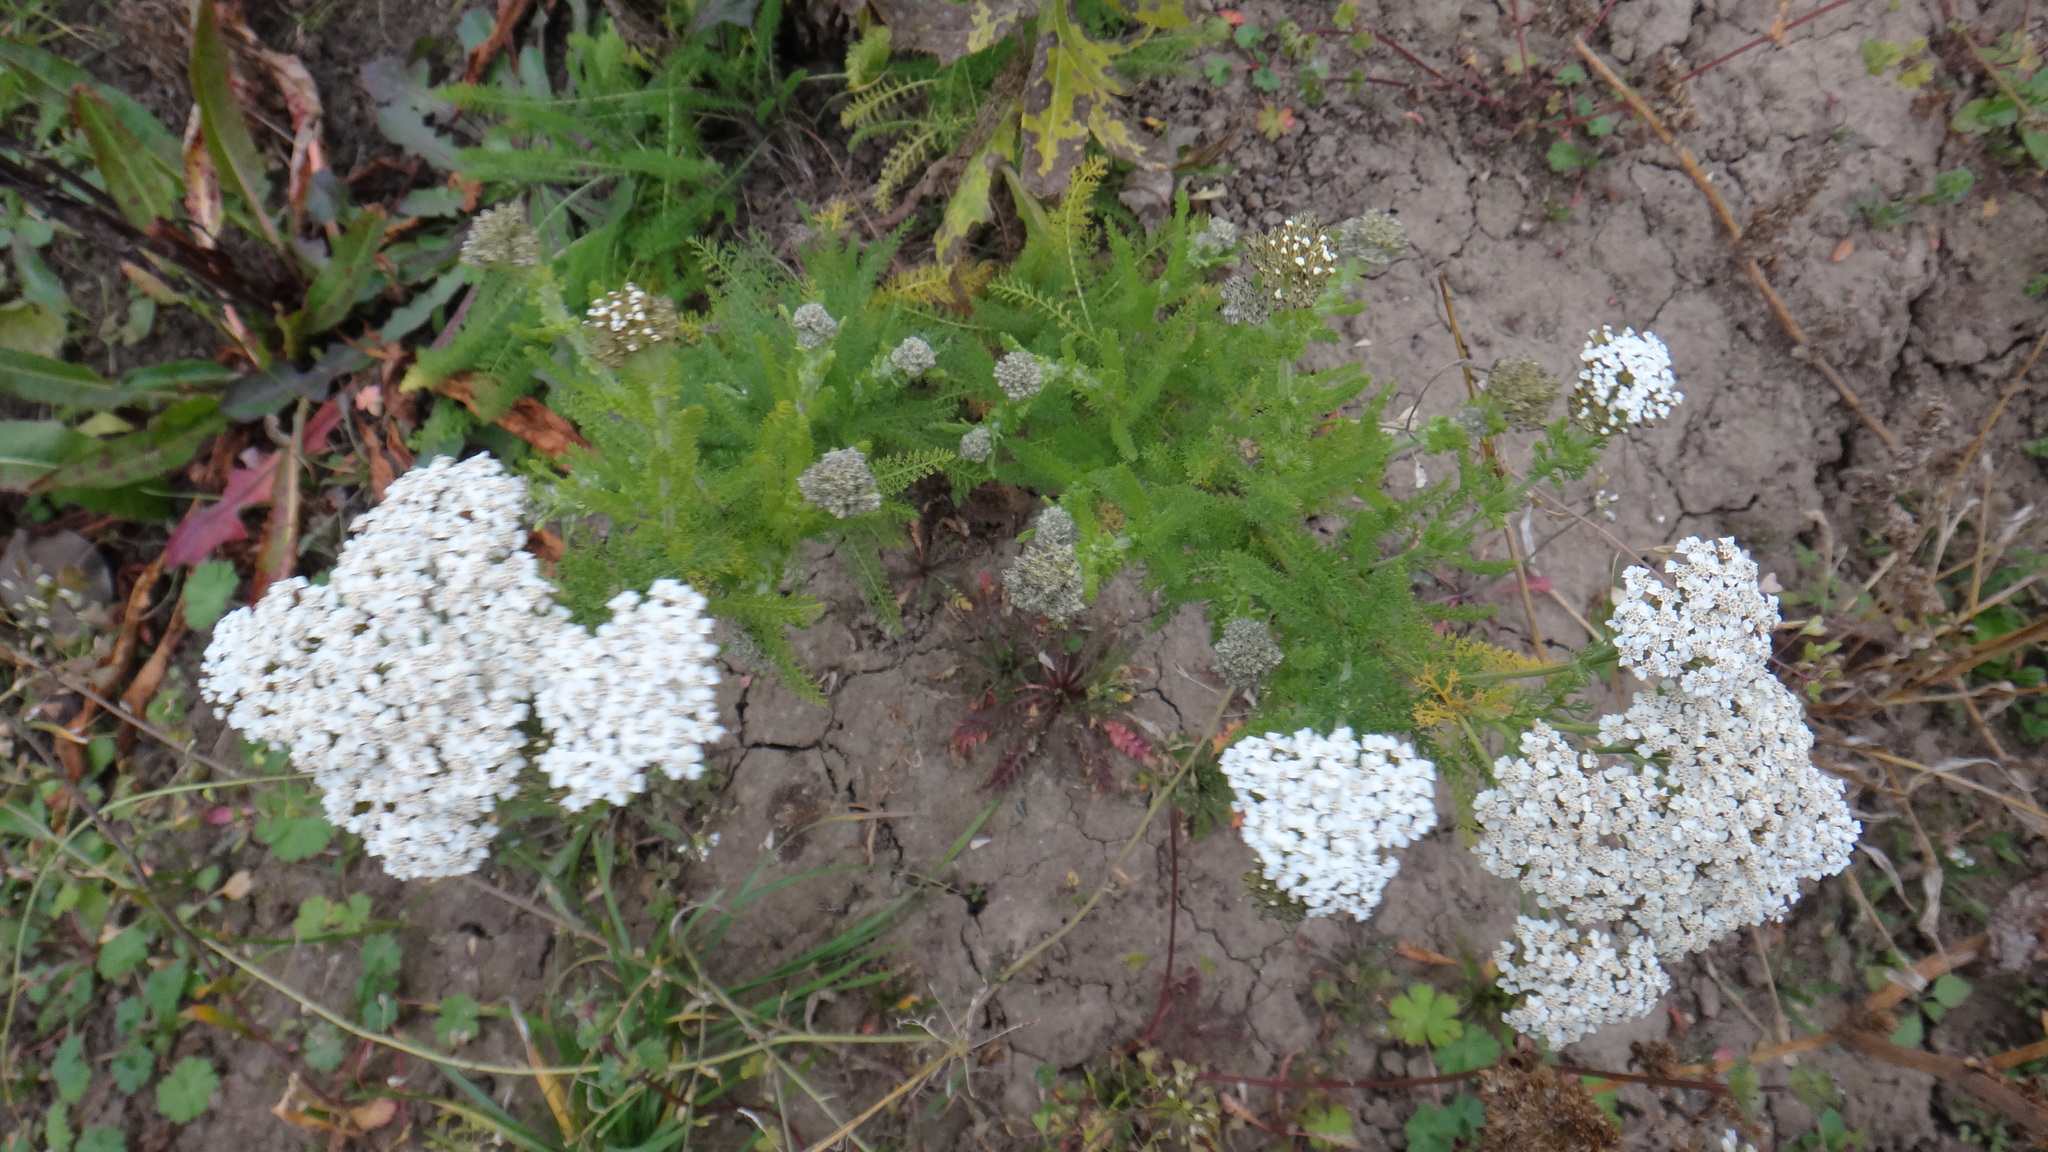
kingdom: Plantae
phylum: Tracheophyta
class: Magnoliopsida
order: Asterales
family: Asteraceae
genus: Achillea
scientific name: Achillea setacea
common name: Bristly yarrow
